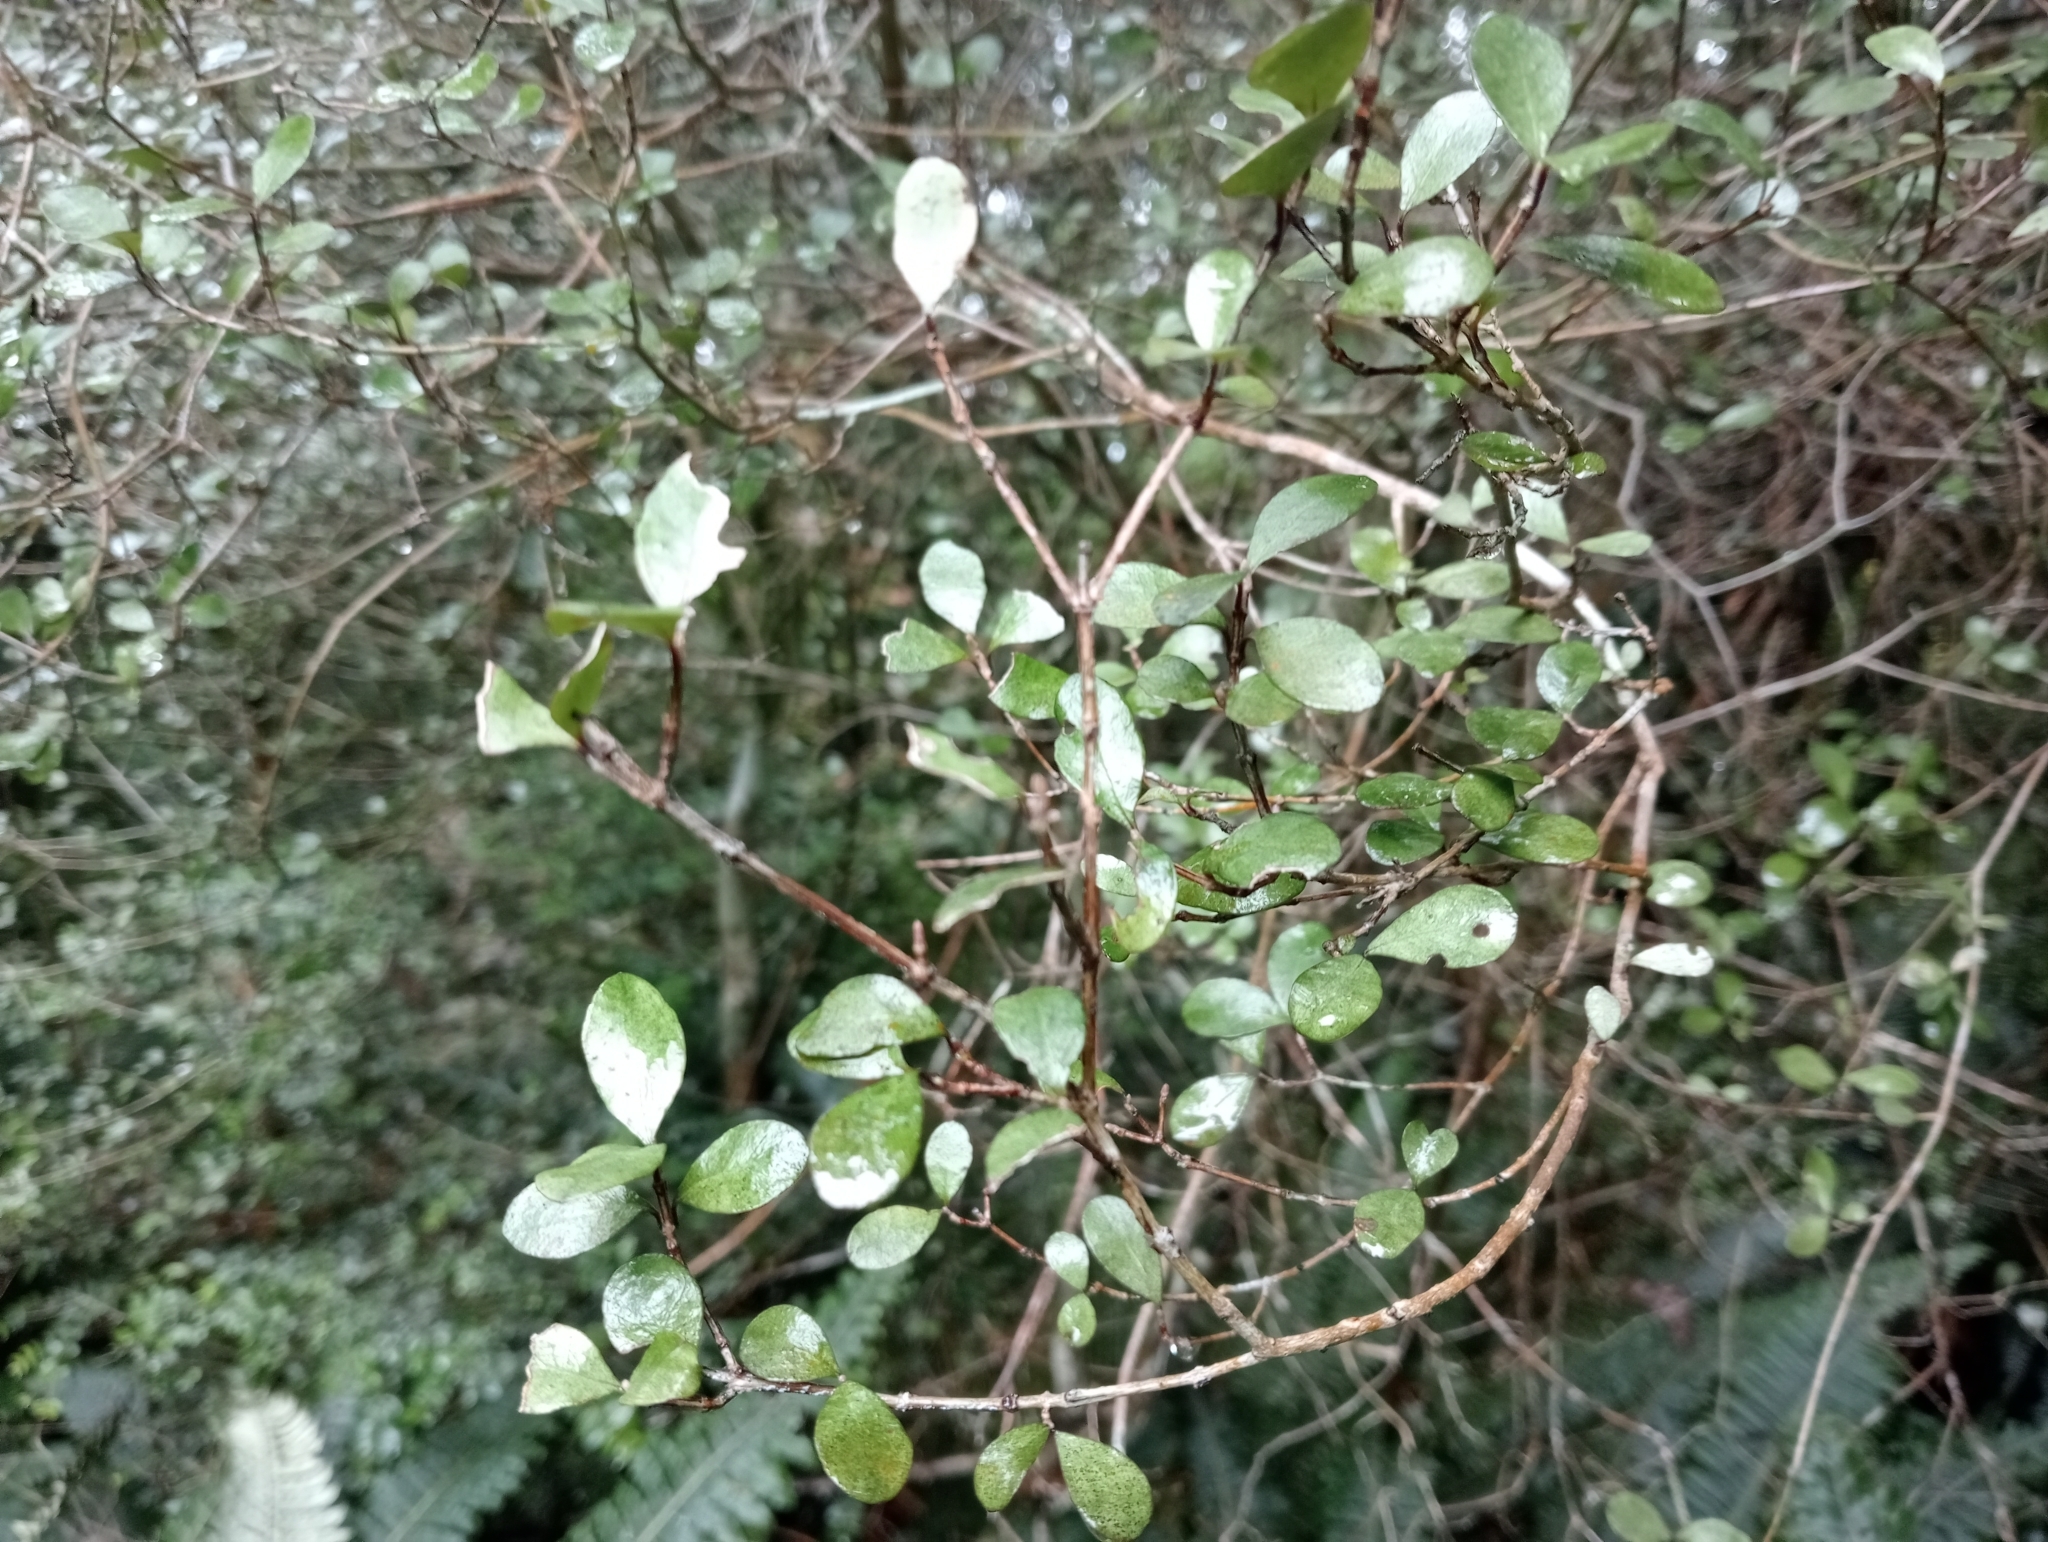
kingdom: Plantae
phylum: Tracheophyta
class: Magnoliopsida
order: Myrtales
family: Myrtaceae
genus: Neomyrtus
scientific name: Neomyrtus pedunculata
